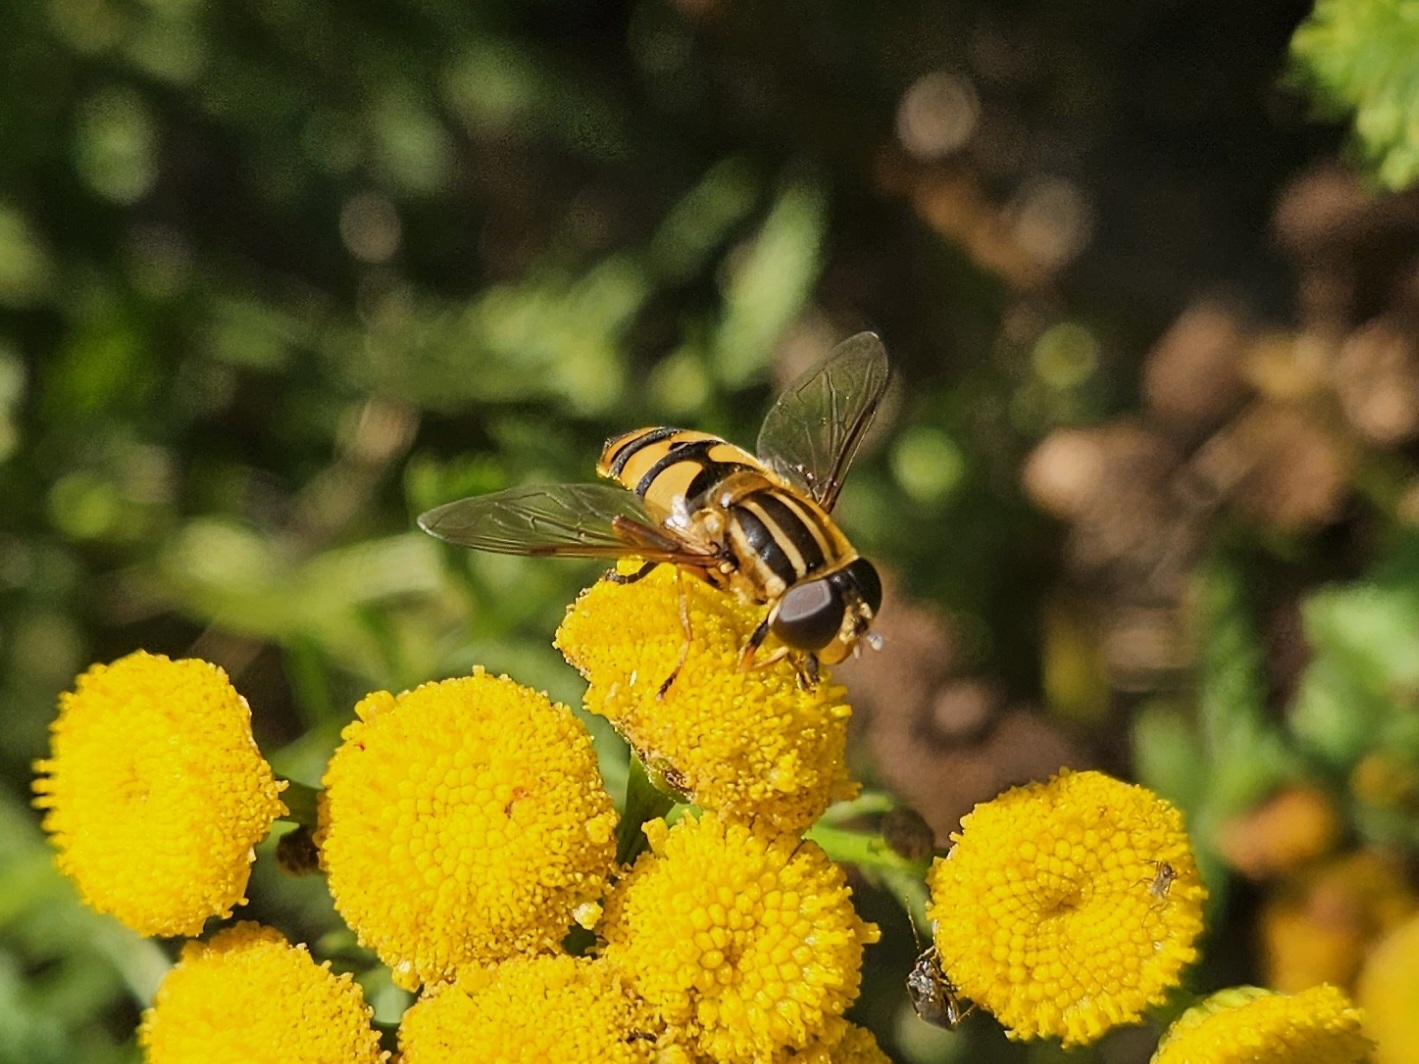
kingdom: Animalia
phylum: Arthropoda
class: Insecta
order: Diptera
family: Syrphidae
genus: Helophilus
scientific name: Helophilus fasciatus
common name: Narrow-headed marsh fly
